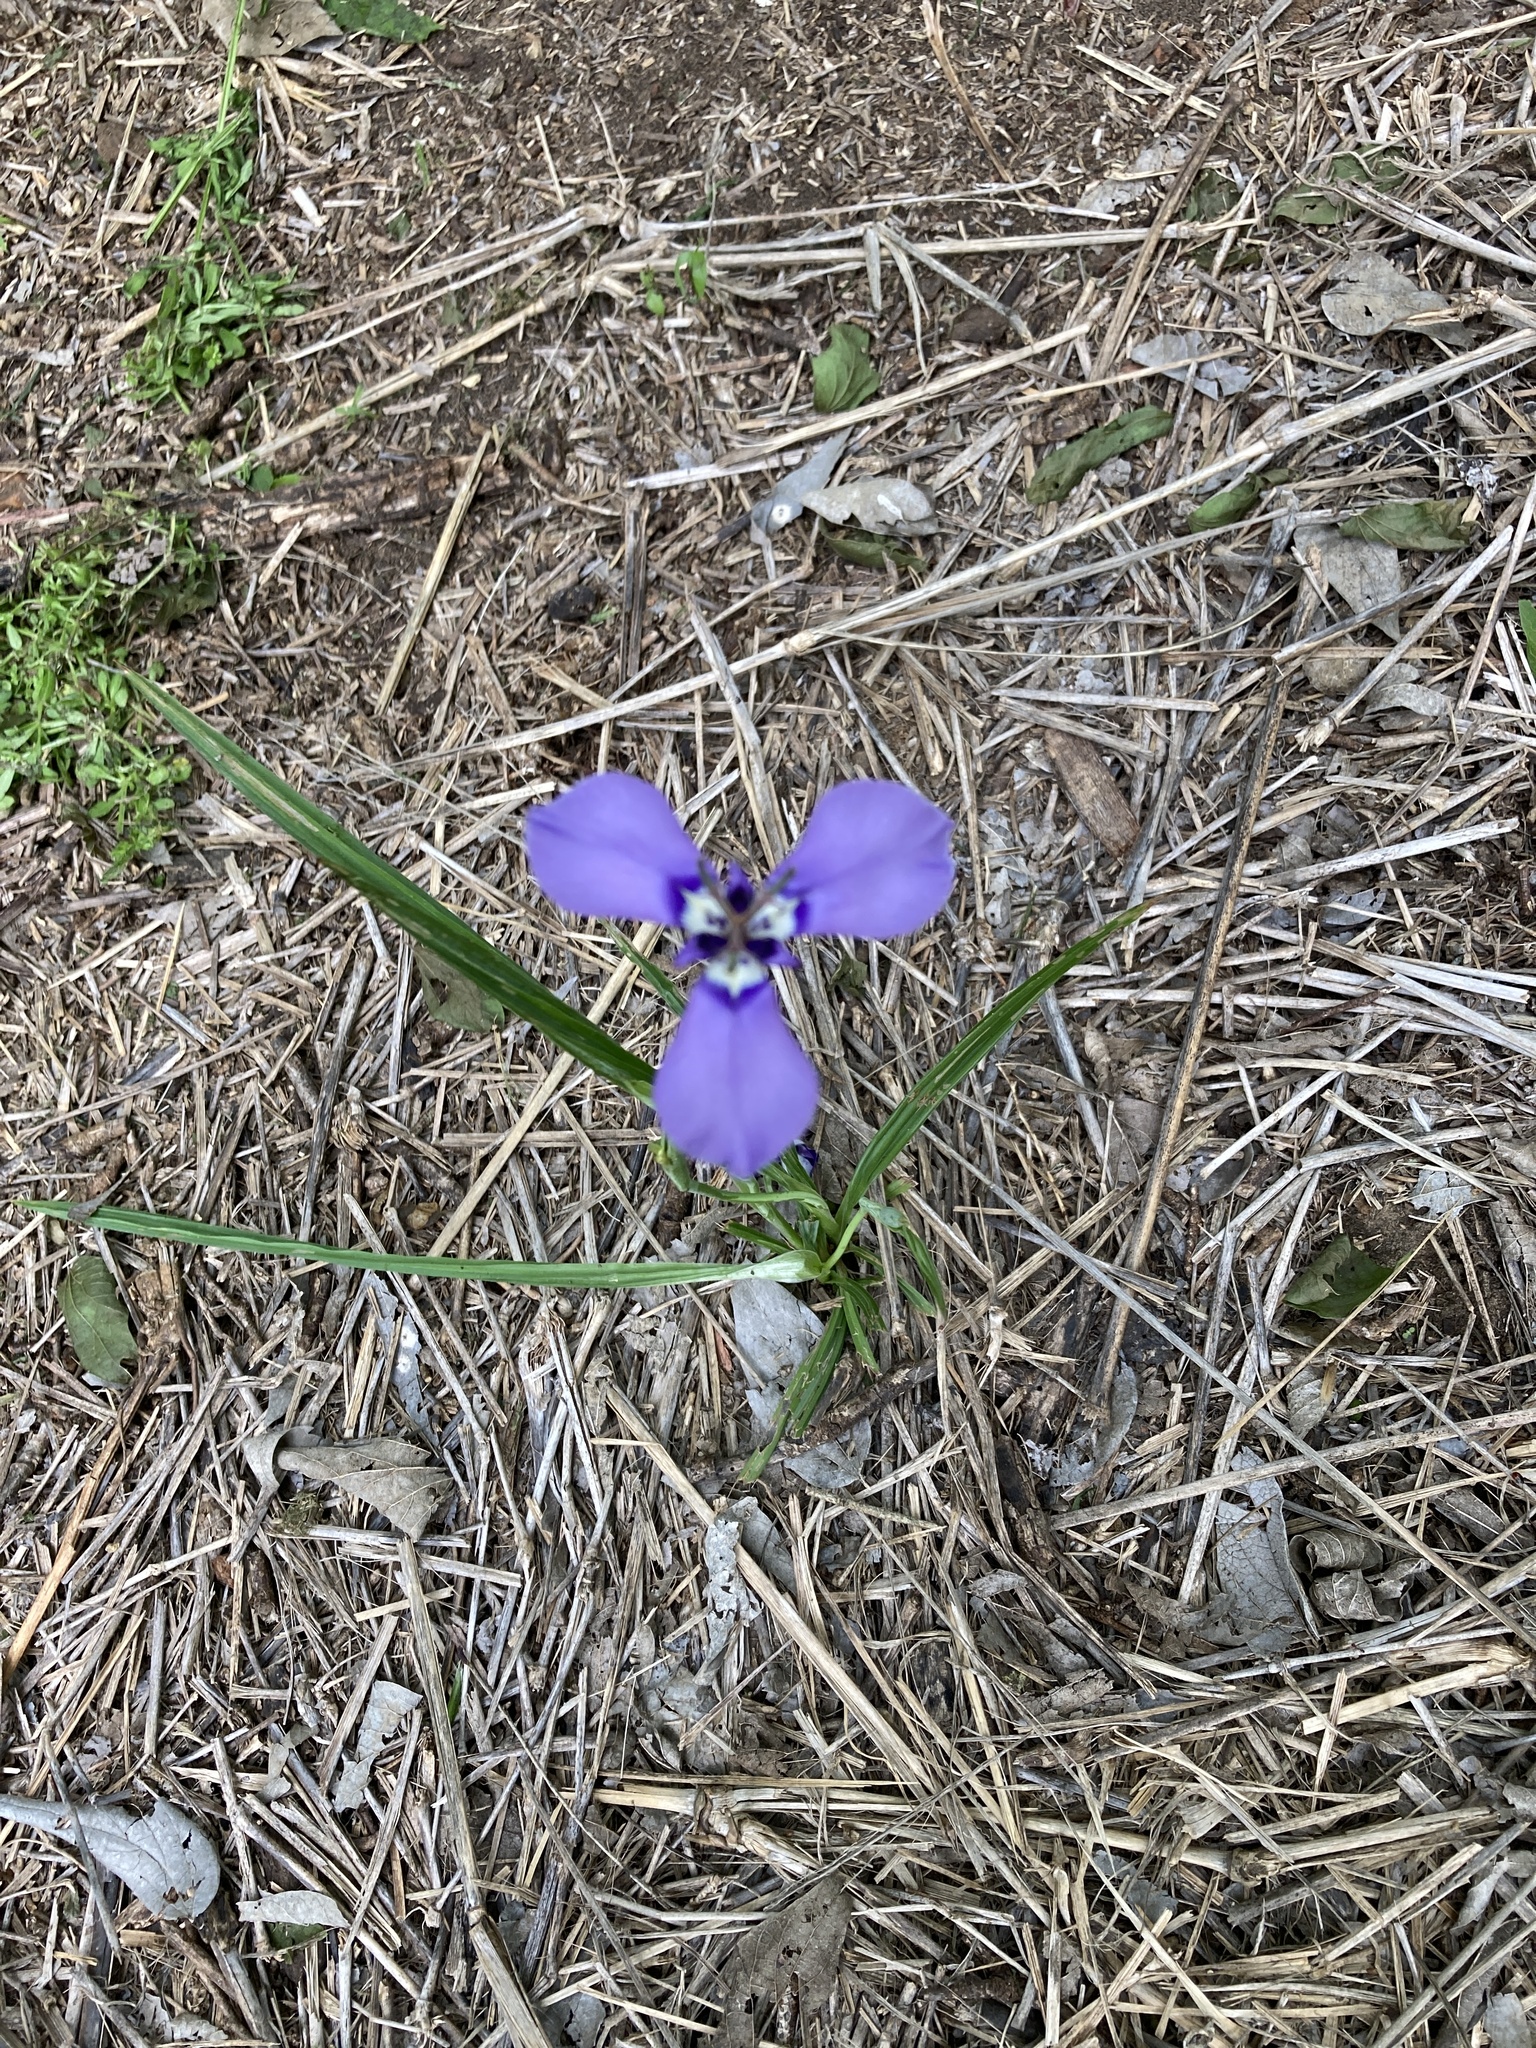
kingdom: Plantae
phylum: Tracheophyta
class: Liliopsida
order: Asparagales
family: Iridaceae
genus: Herbertia
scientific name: Herbertia lahue
